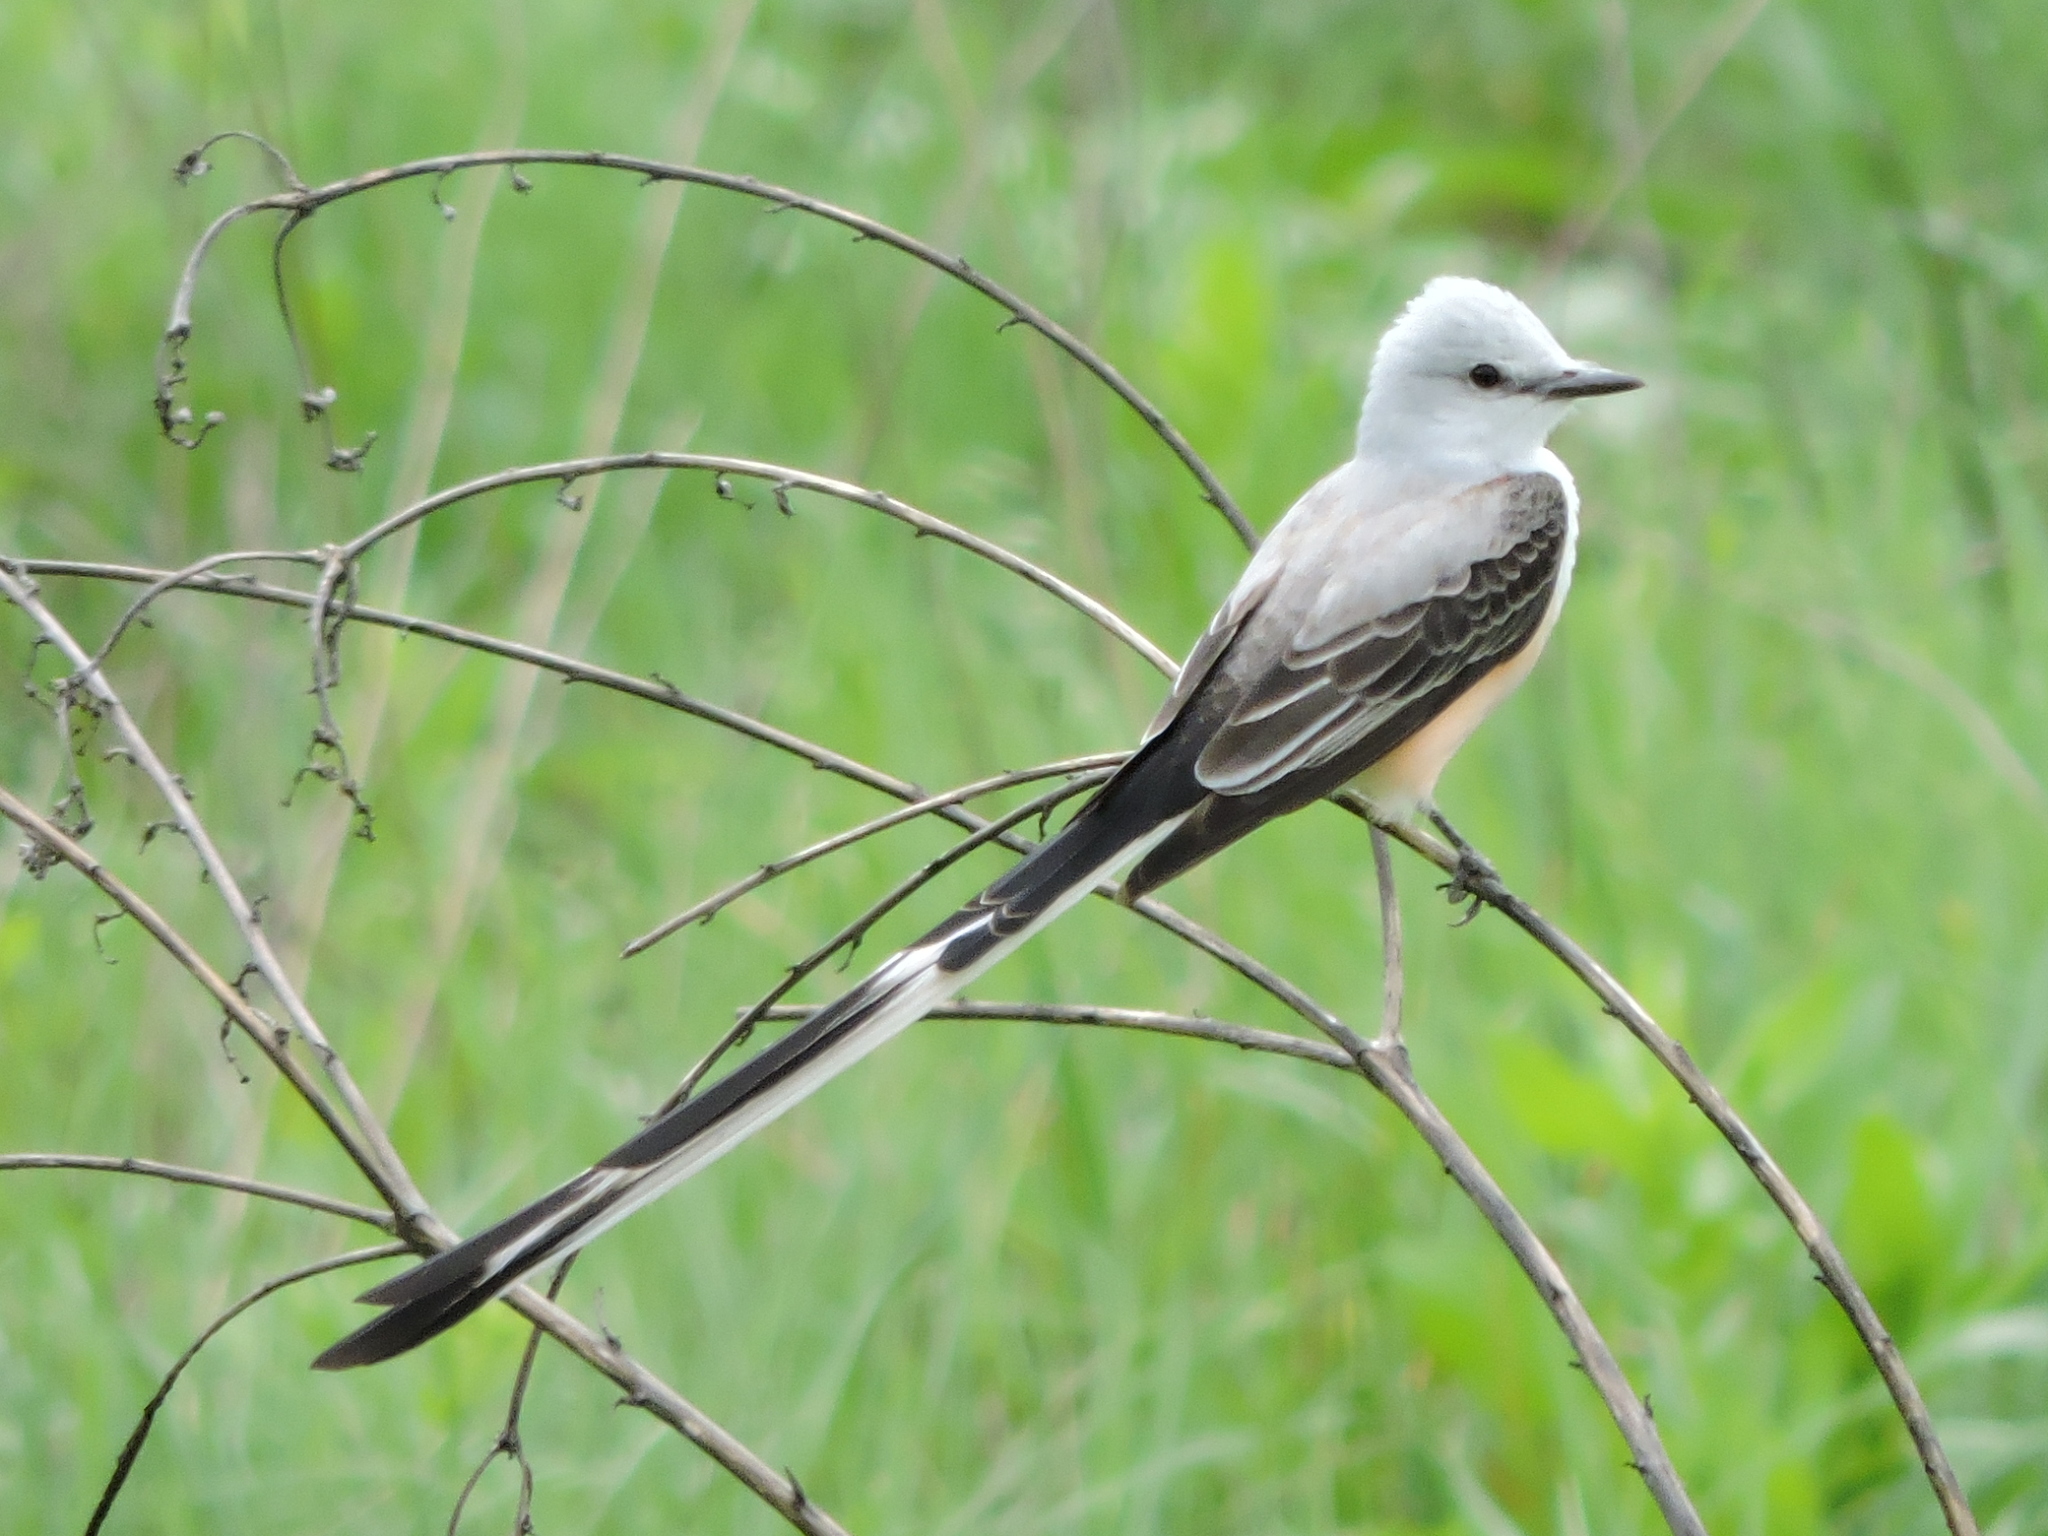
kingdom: Animalia
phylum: Chordata
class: Aves
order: Passeriformes
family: Tyrannidae
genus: Tyrannus
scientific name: Tyrannus forficatus
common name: Scissor-tailed flycatcher
